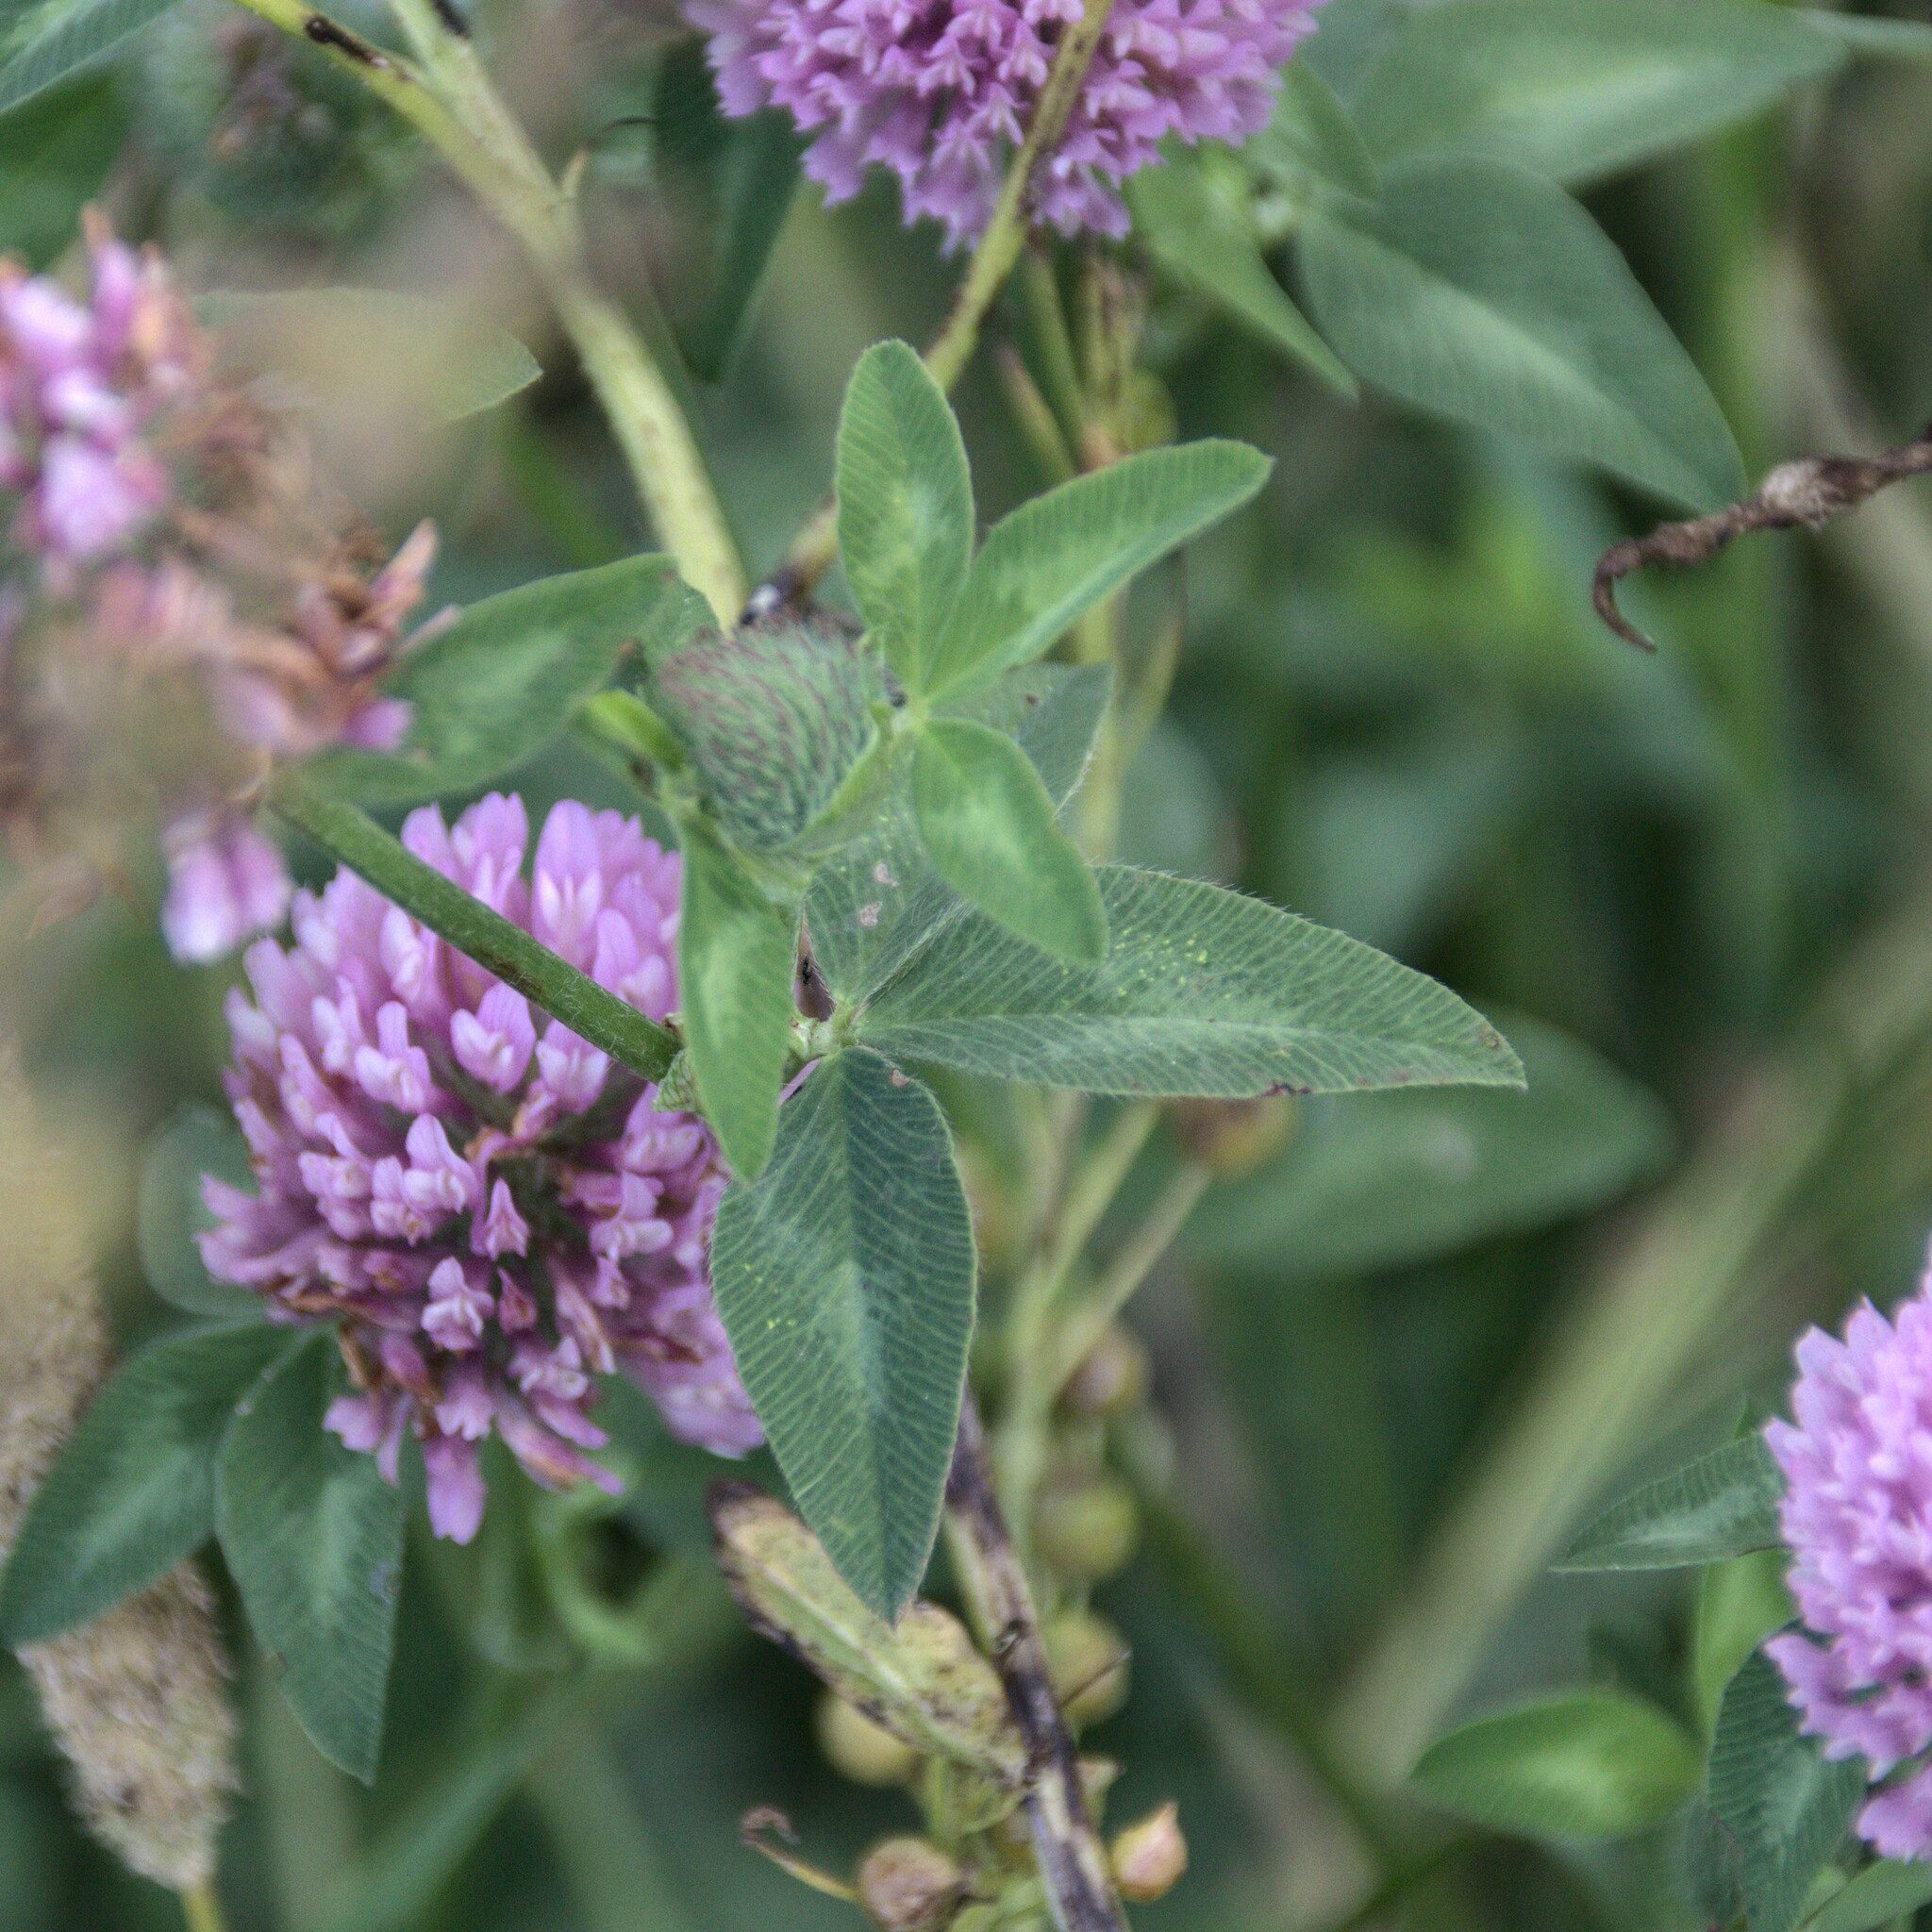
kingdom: Plantae
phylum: Tracheophyta
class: Magnoliopsida
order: Fabales
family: Fabaceae
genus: Trifolium
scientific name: Trifolium pratense
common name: Red clover
